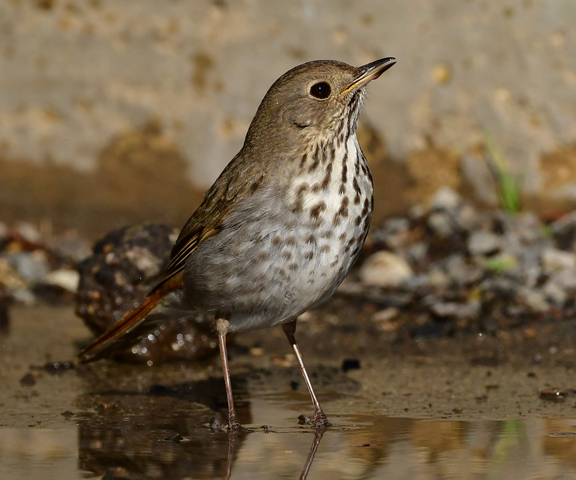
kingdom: Animalia
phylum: Chordata
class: Aves
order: Passeriformes
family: Turdidae
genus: Catharus
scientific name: Catharus guttatus
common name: Hermit thrush
